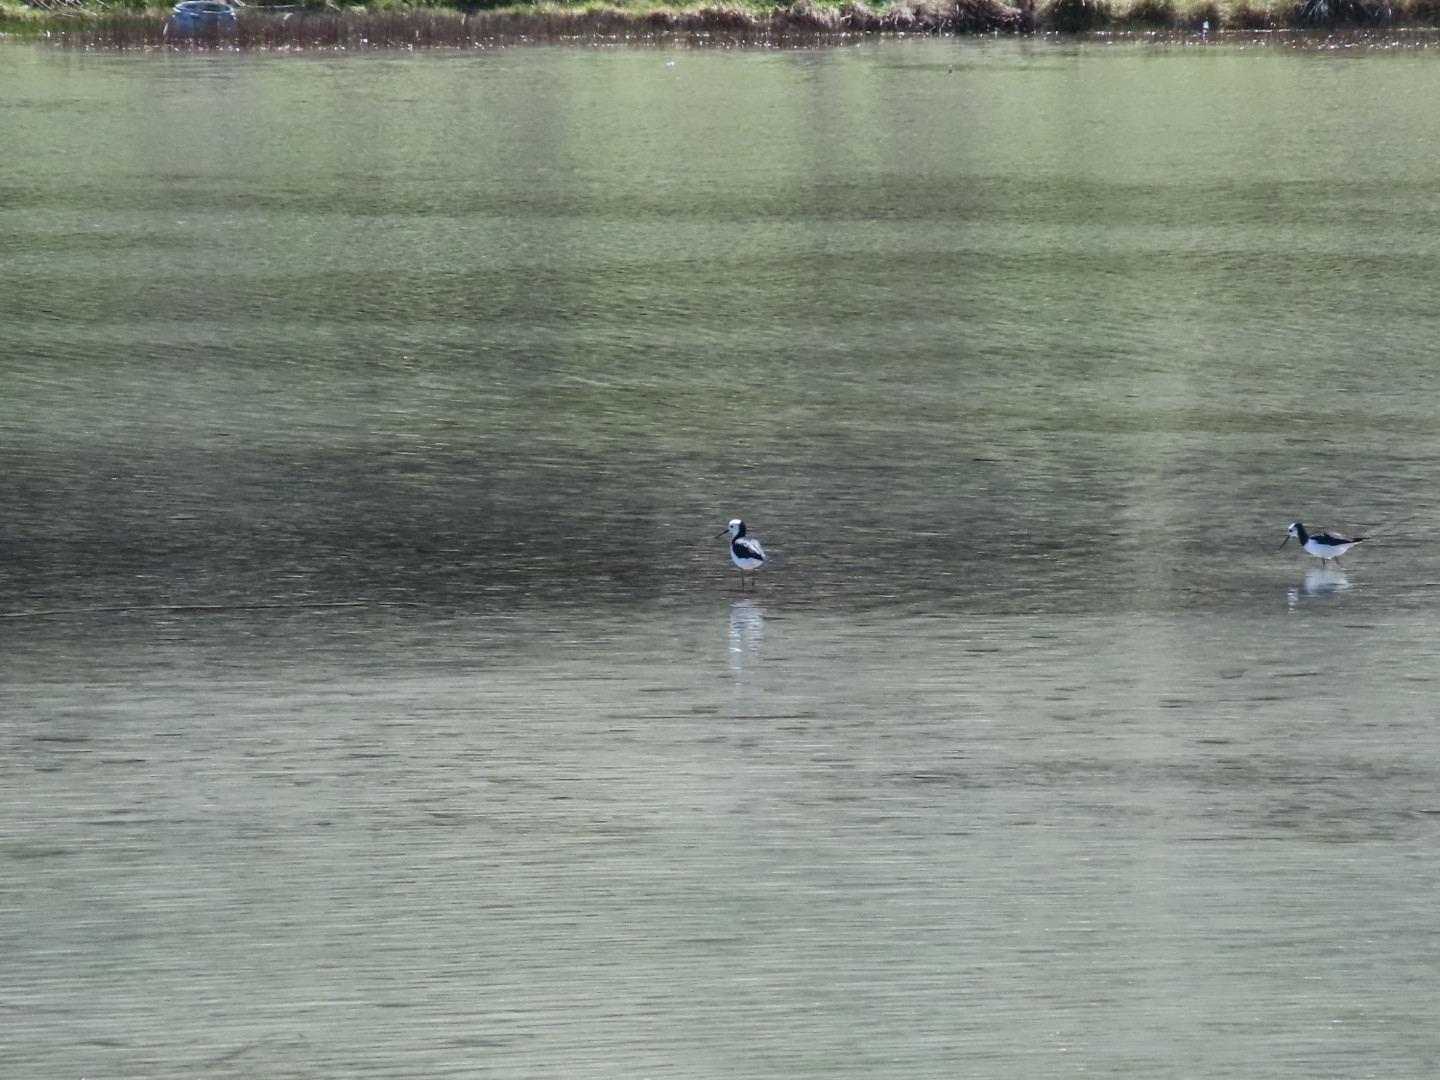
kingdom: Animalia
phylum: Chordata
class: Aves
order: Charadriiformes
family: Recurvirostridae
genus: Himantopus
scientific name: Himantopus leucocephalus
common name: White-headed stilt
